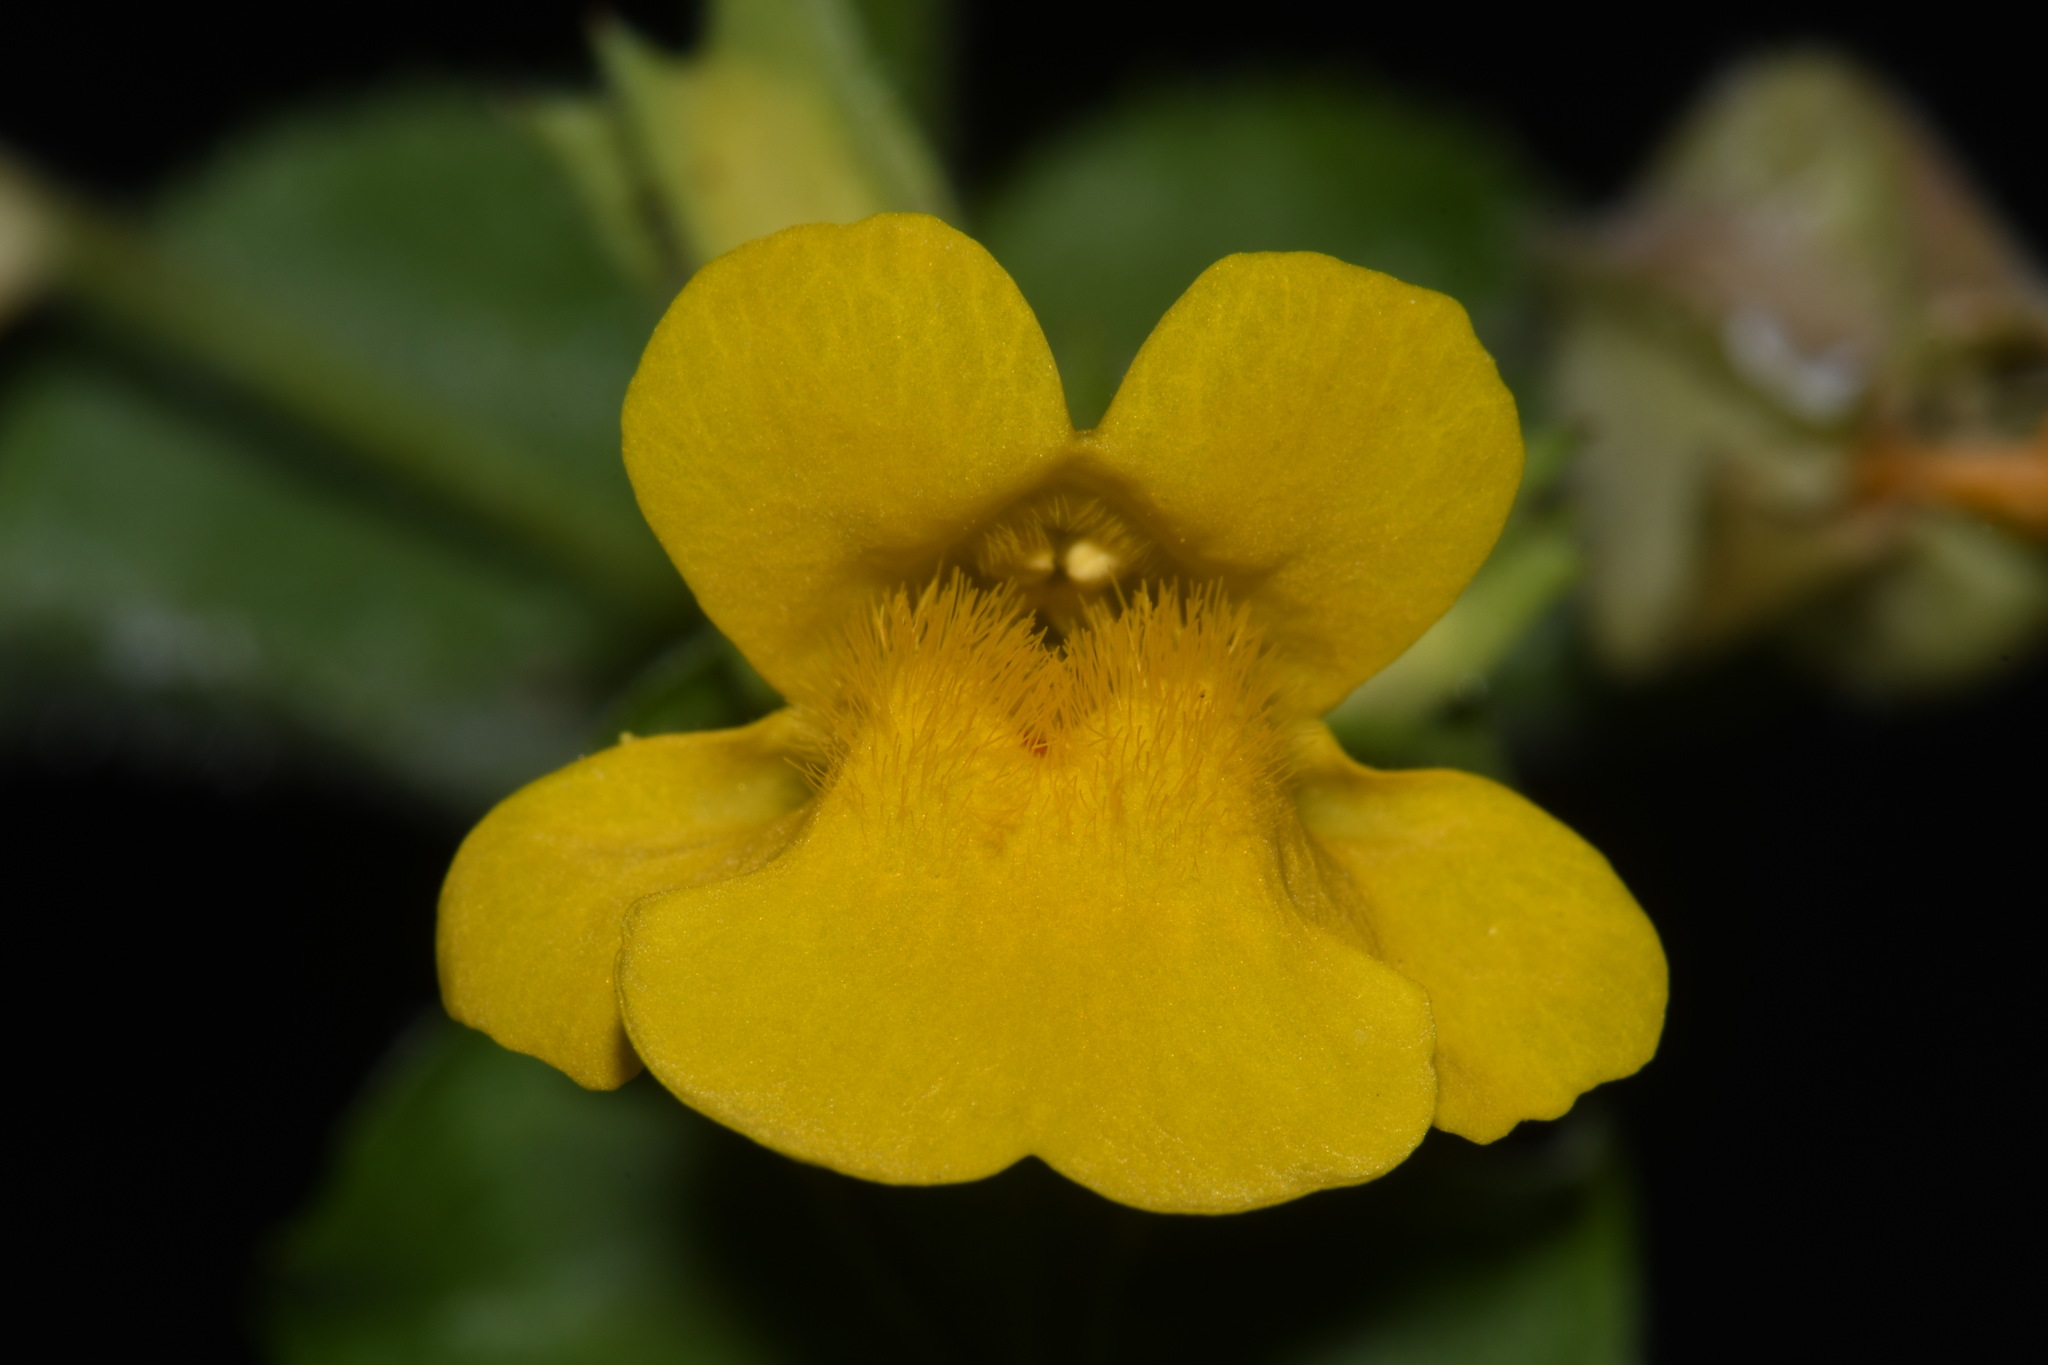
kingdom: Plantae
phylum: Tracheophyta
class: Magnoliopsida
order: Lamiales
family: Phrymaceae
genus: Erythranthe
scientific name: Erythranthe guttata
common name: Monkeyflower
